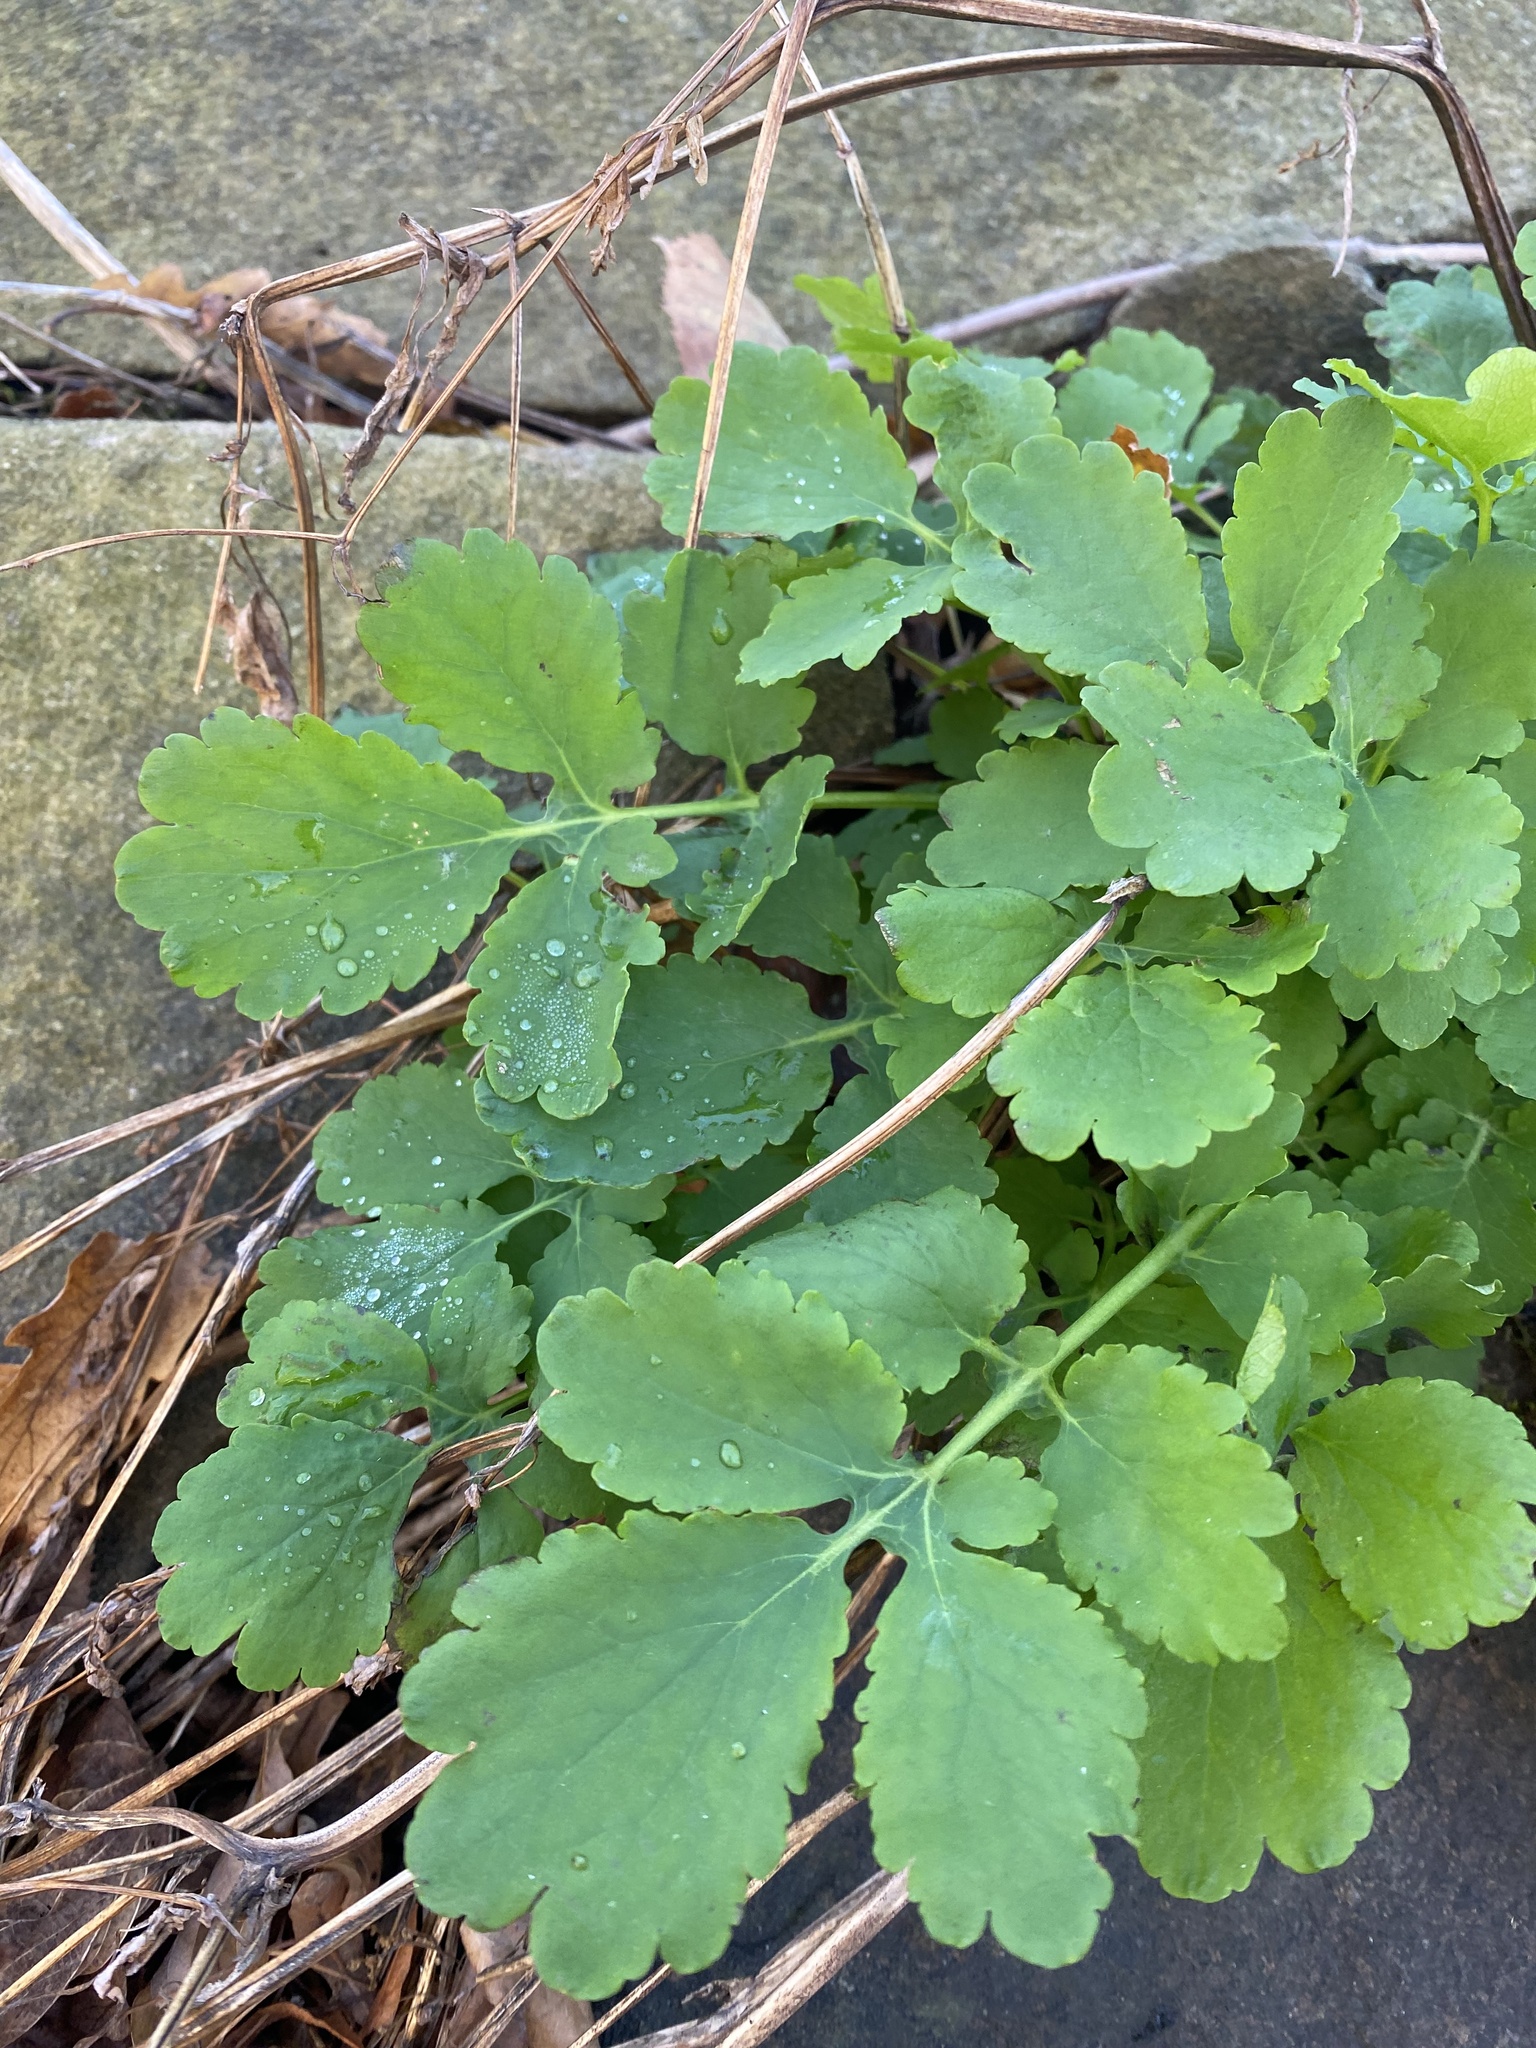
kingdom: Plantae
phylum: Tracheophyta
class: Magnoliopsida
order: Ranunculales
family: Papaveraceae
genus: Chelidonium
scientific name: Chelidonium majus
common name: Greater celandine
